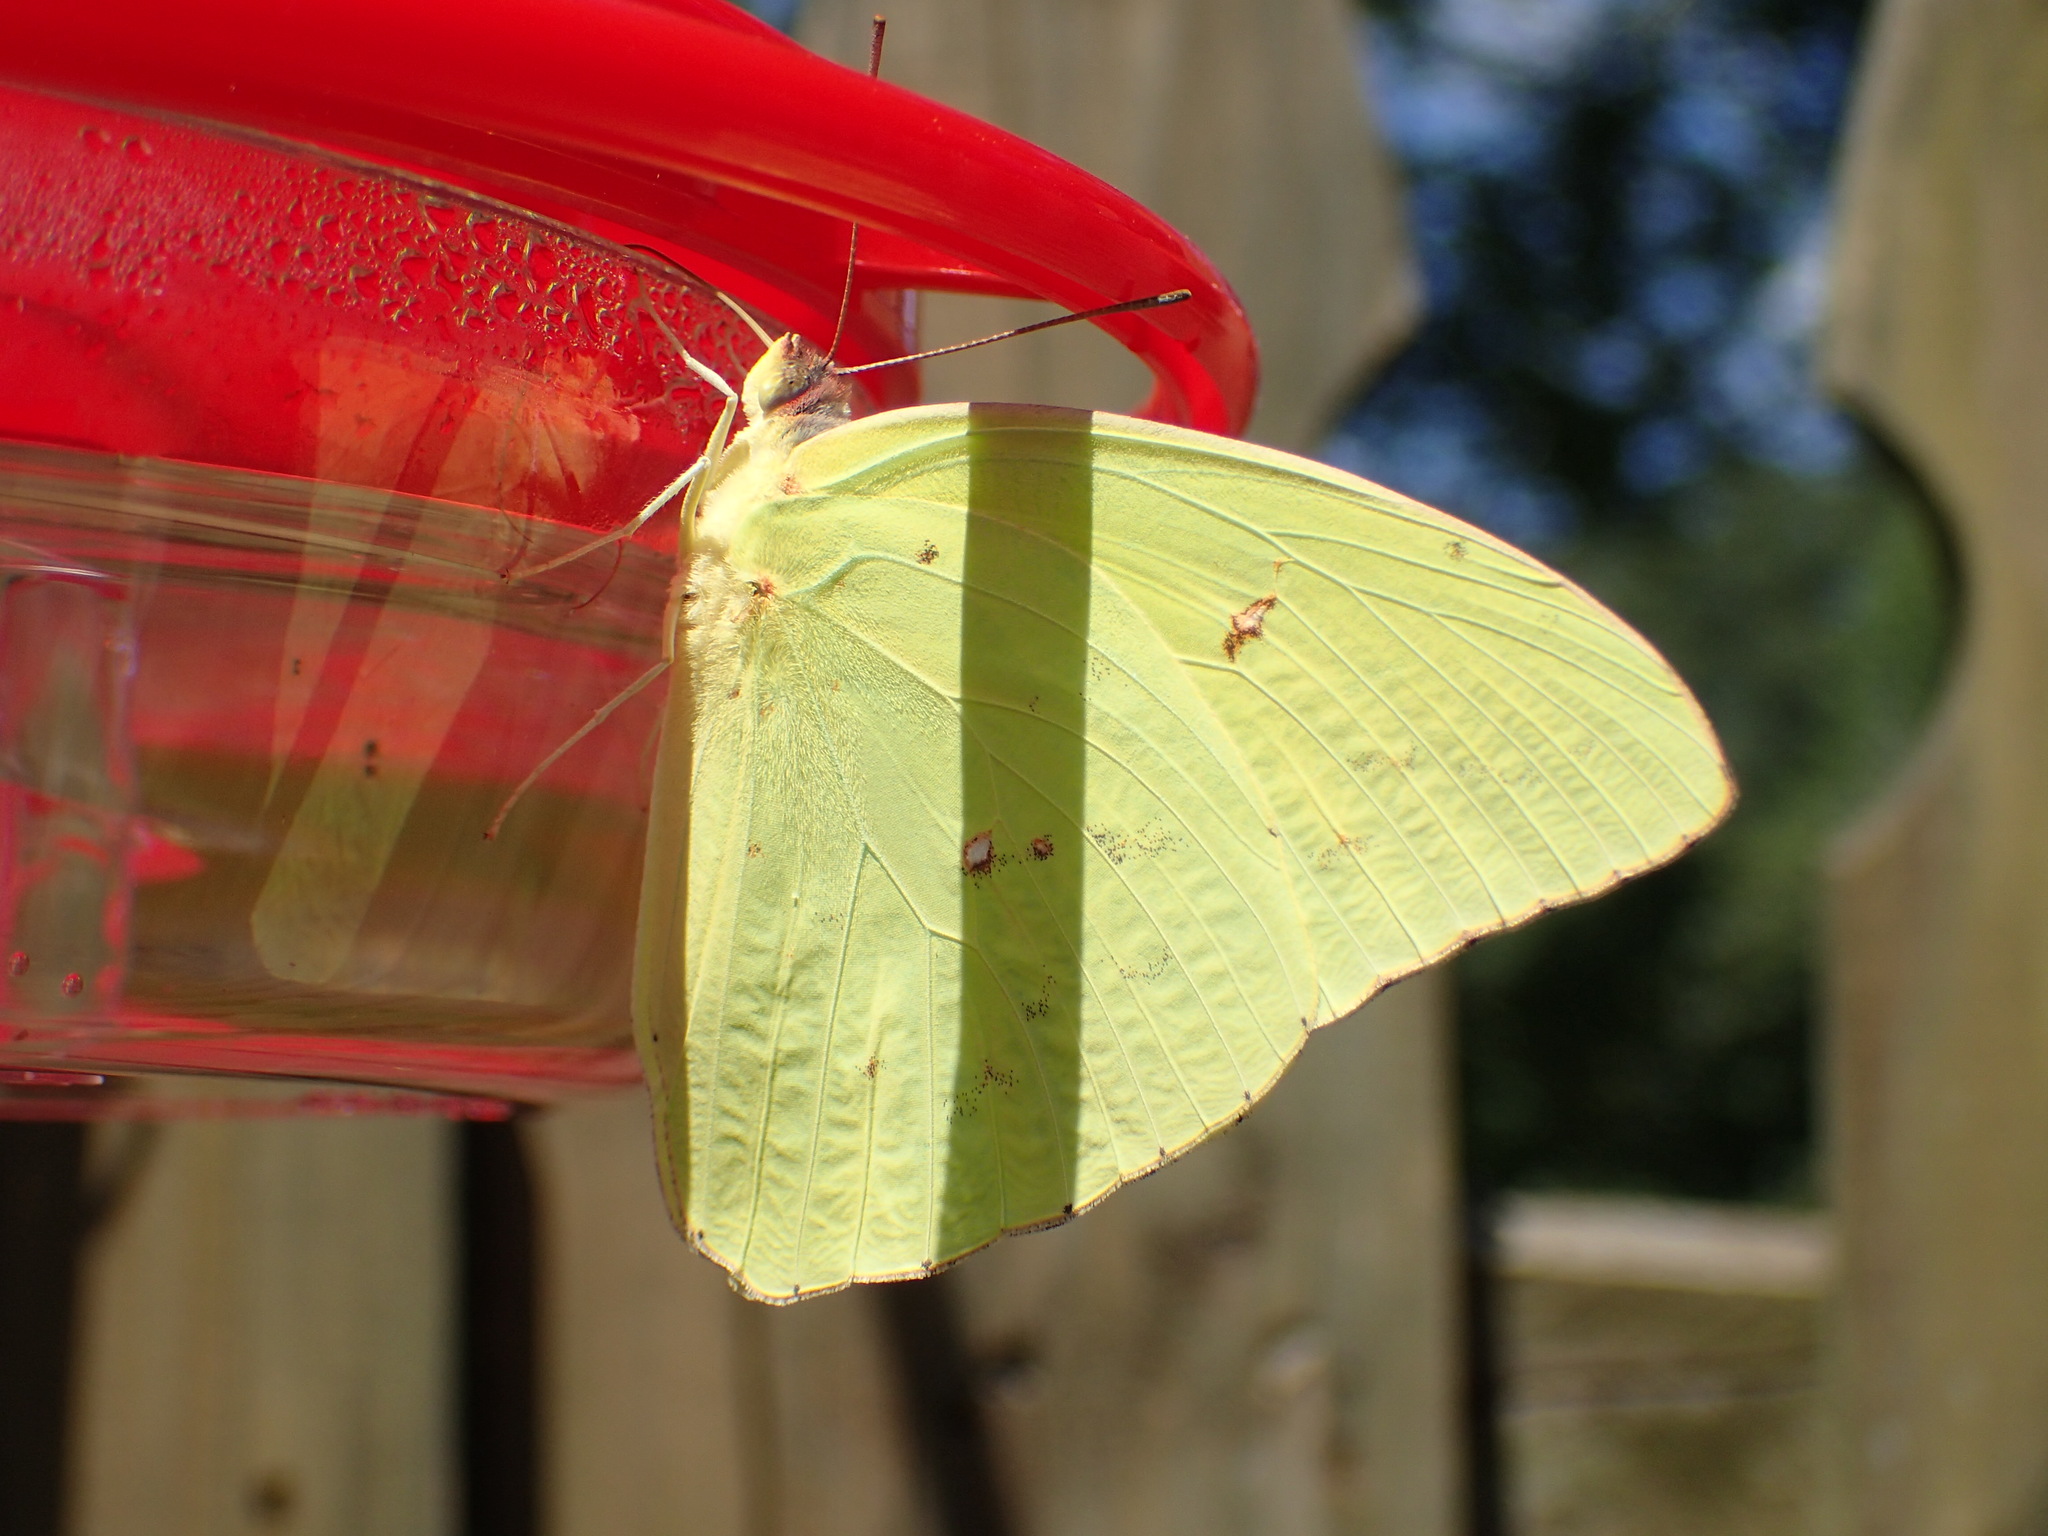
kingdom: Animalia
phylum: Arthropoda
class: Insecta
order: Lepidoptera
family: Pieridae
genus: Phoebis
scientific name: Phoebis sennae
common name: Cloudless sulphur
